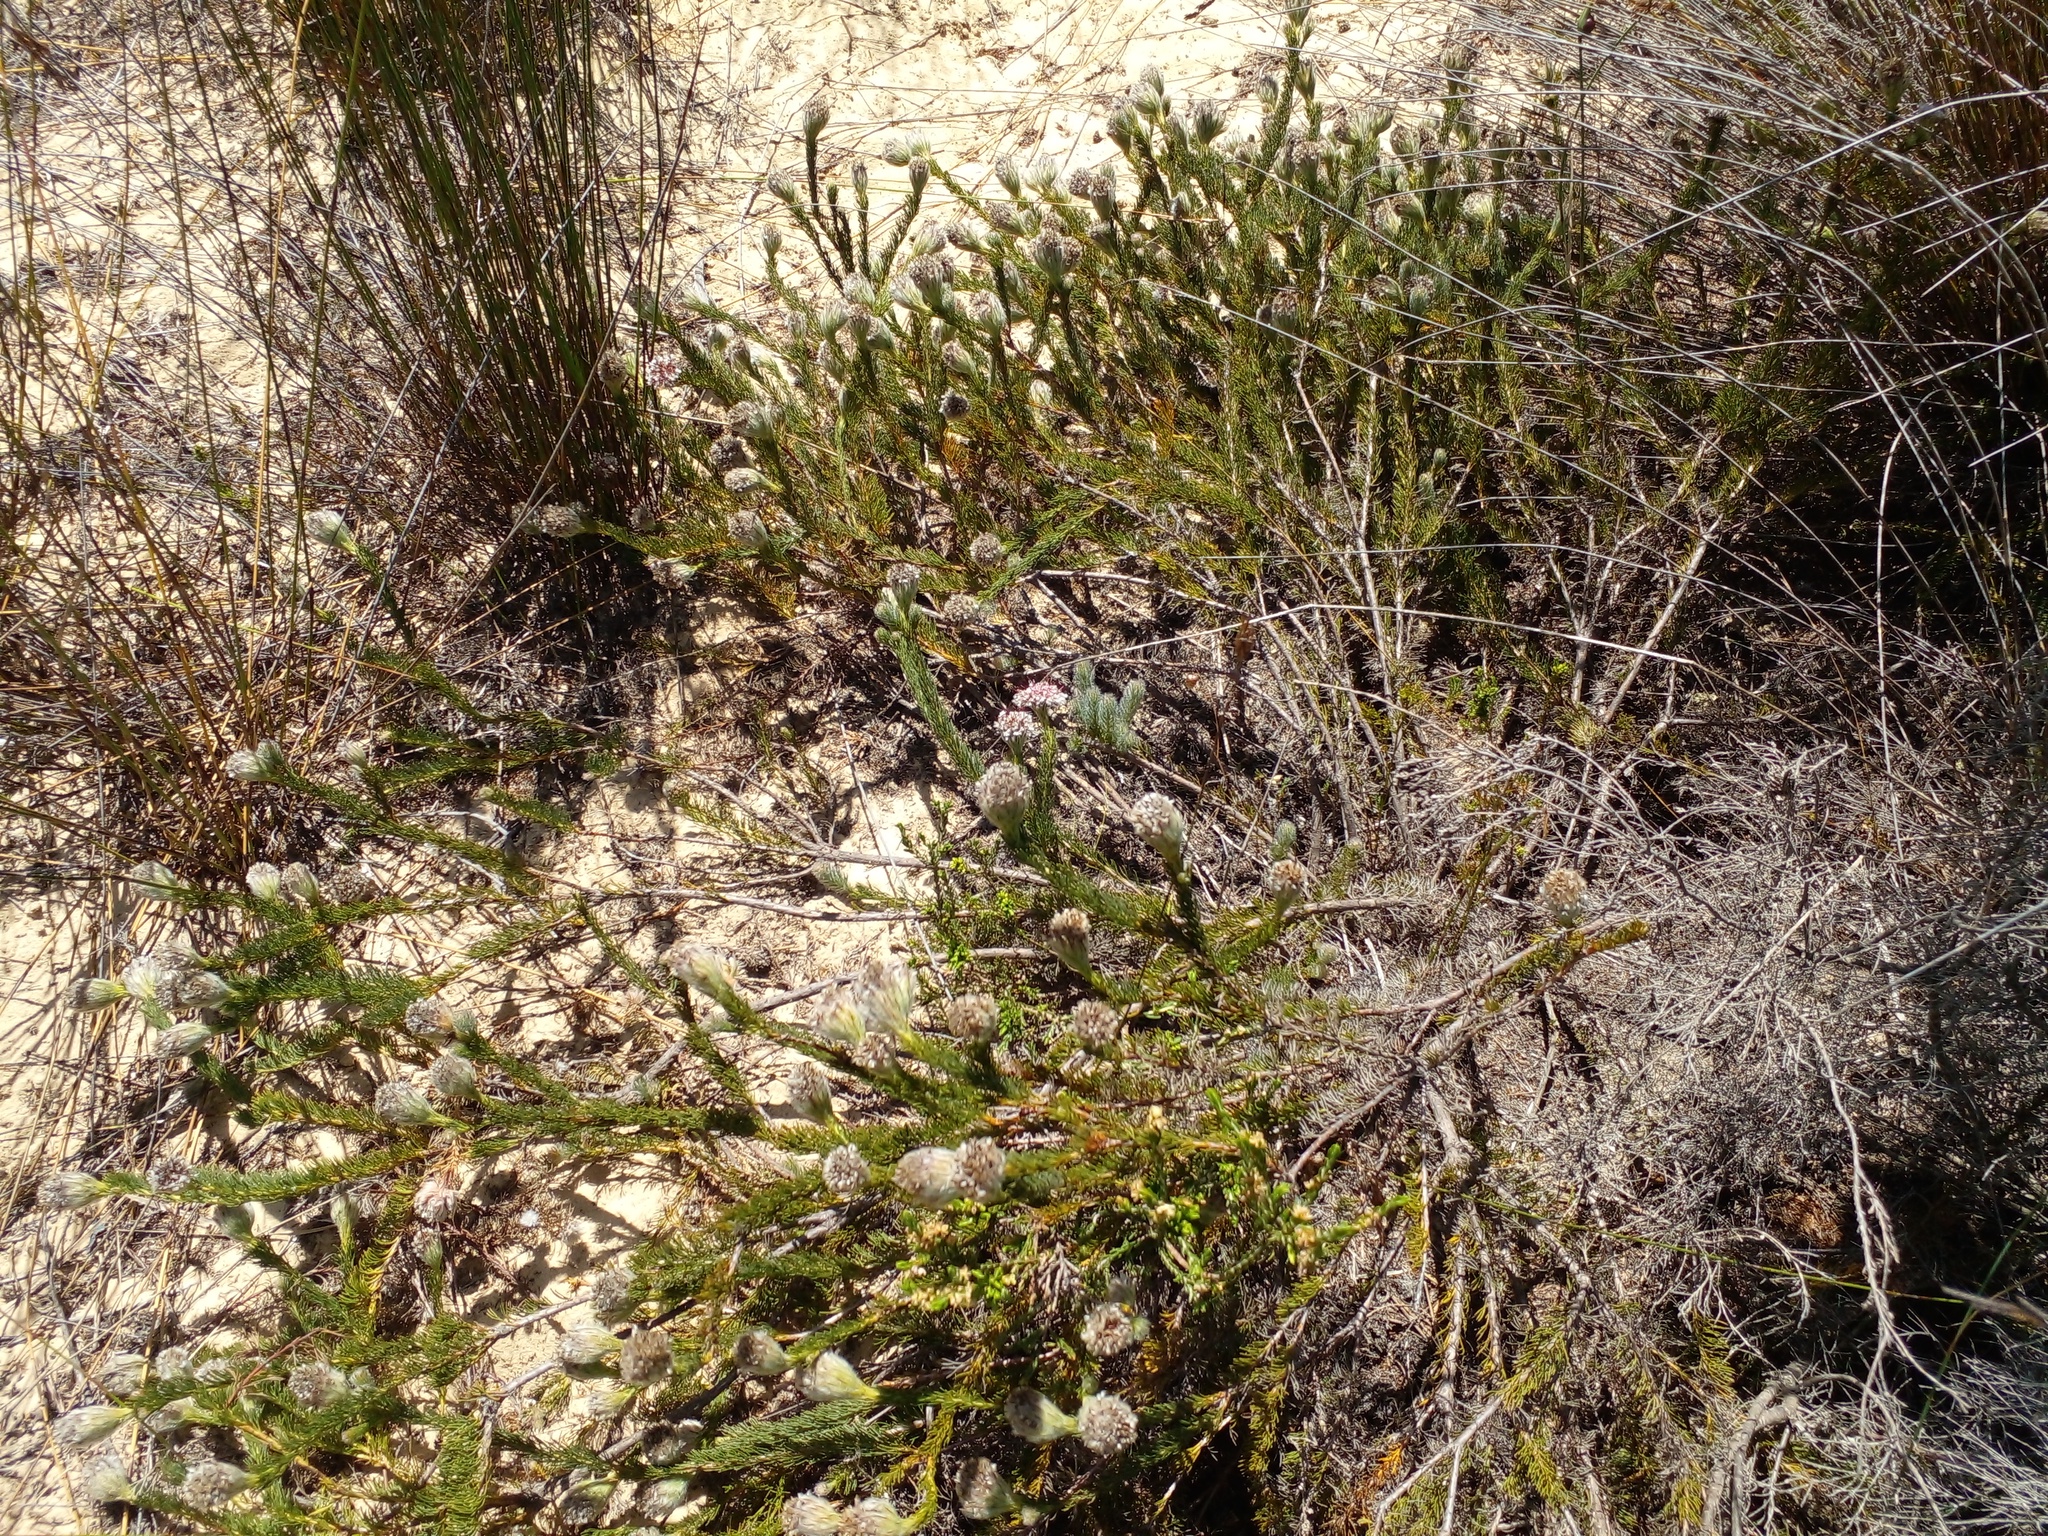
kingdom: Plantae
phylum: Tracheophyta
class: Magnoliopsida
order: Proteales
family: Proteaceae
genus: Serruria
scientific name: Serruria trilopha
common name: Trident spiderhead
